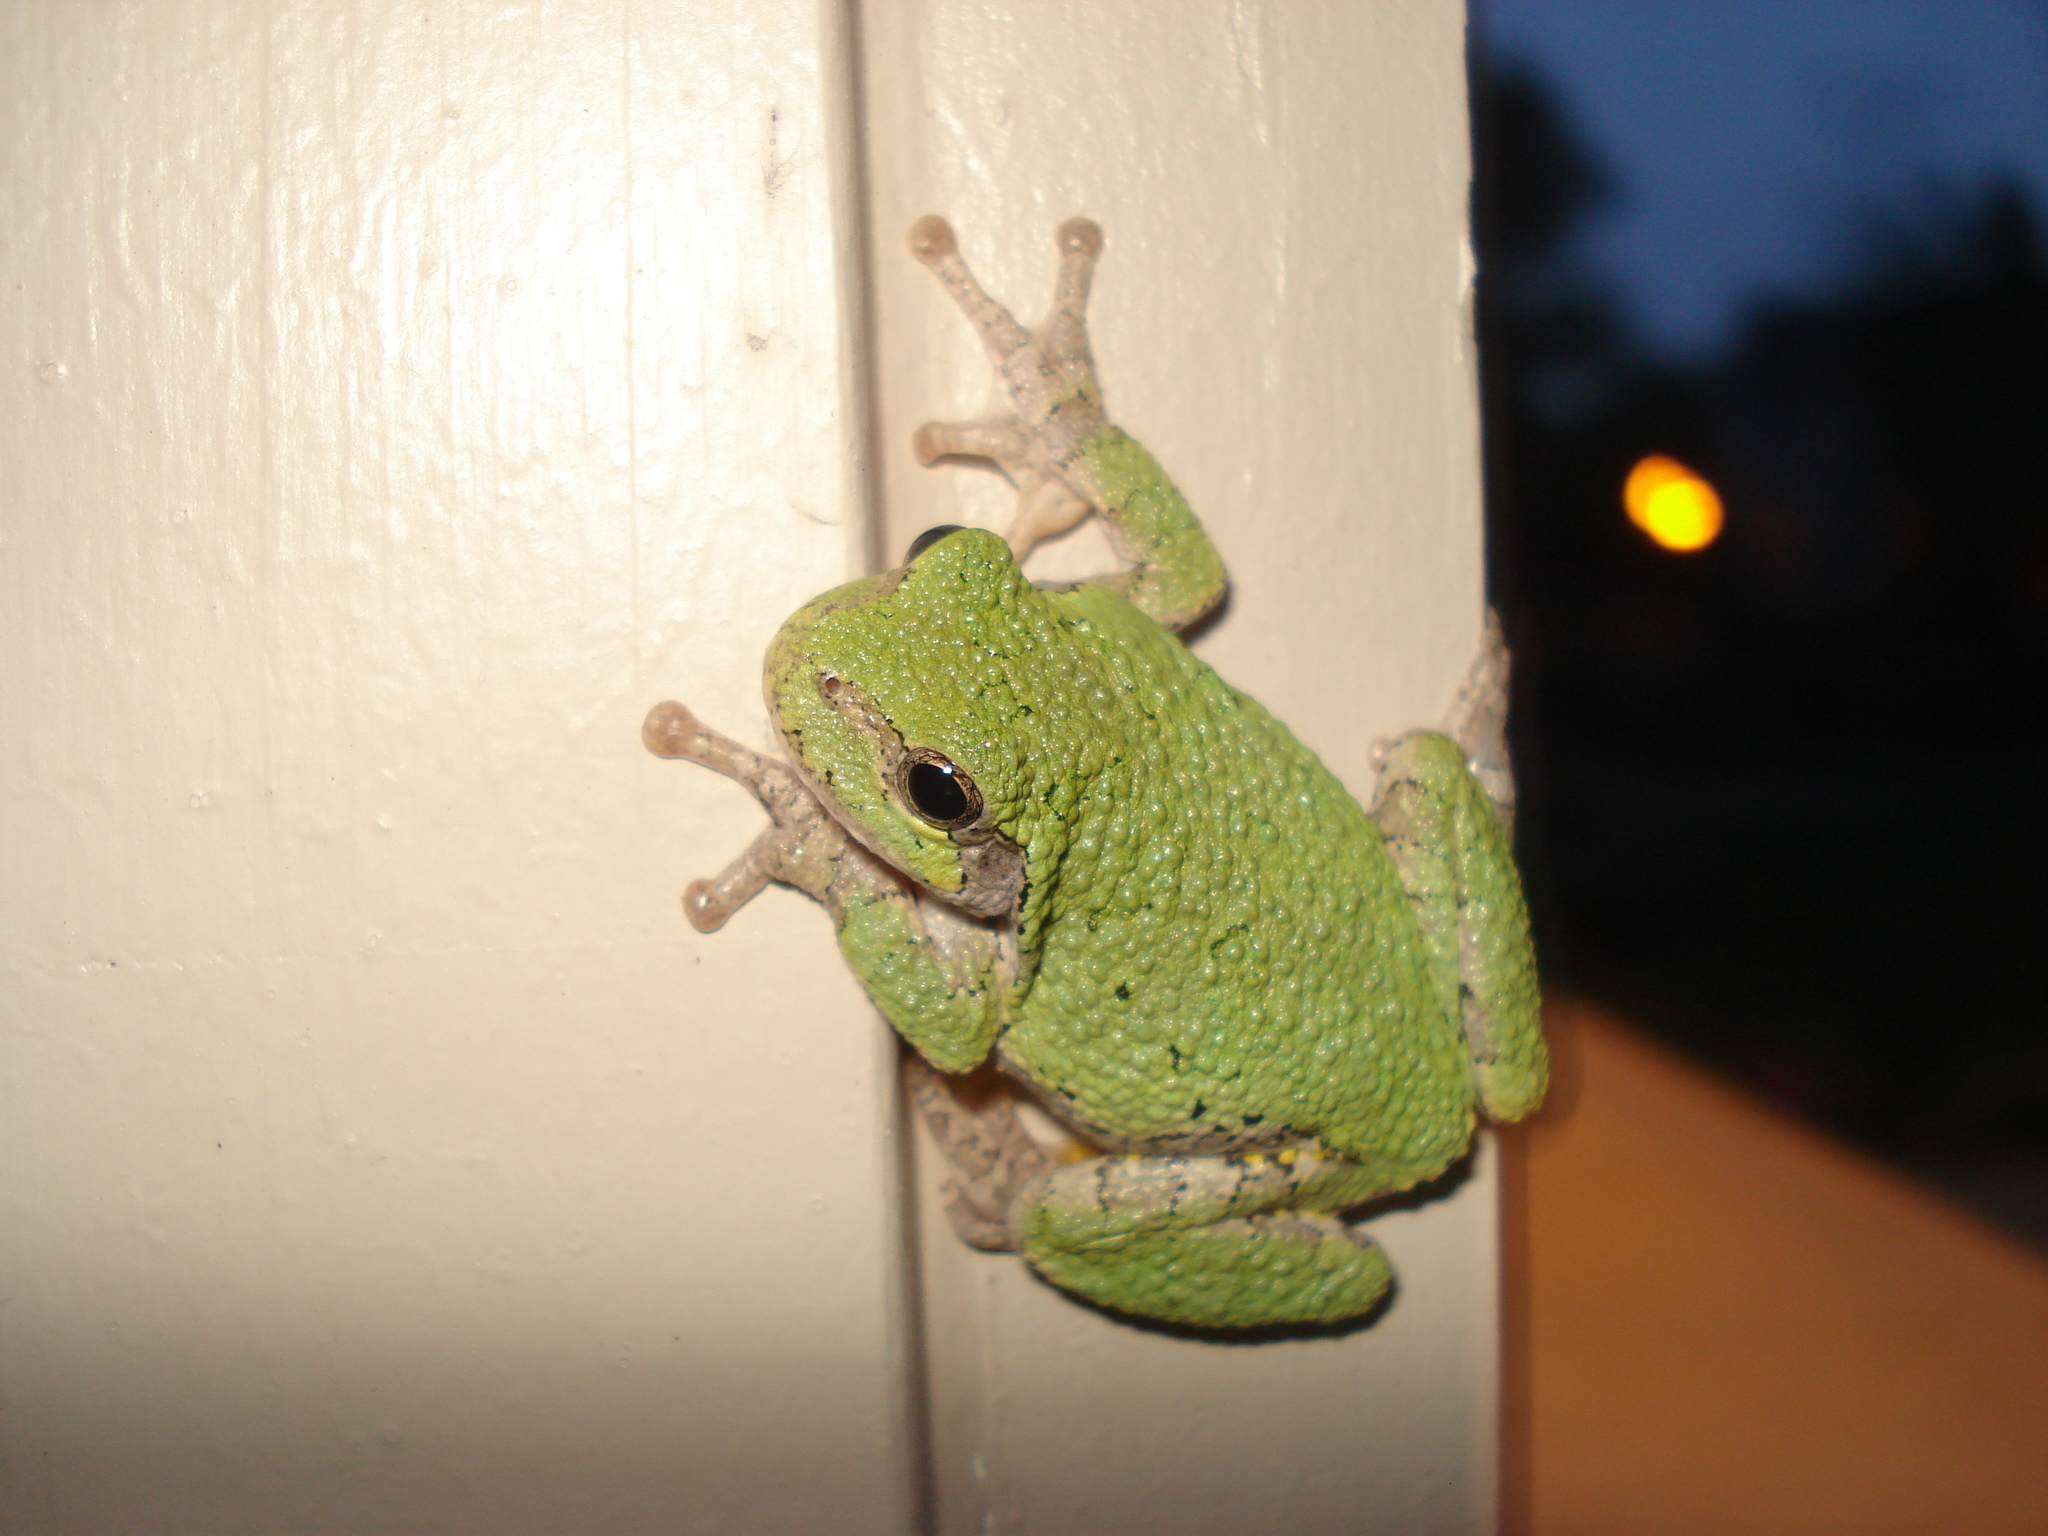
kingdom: Animalia
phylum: Chordata
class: Amphibia
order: Anura
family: Hylidae
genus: Dryophytes
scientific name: Dryophytes versicolor
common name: Gray treefrog
